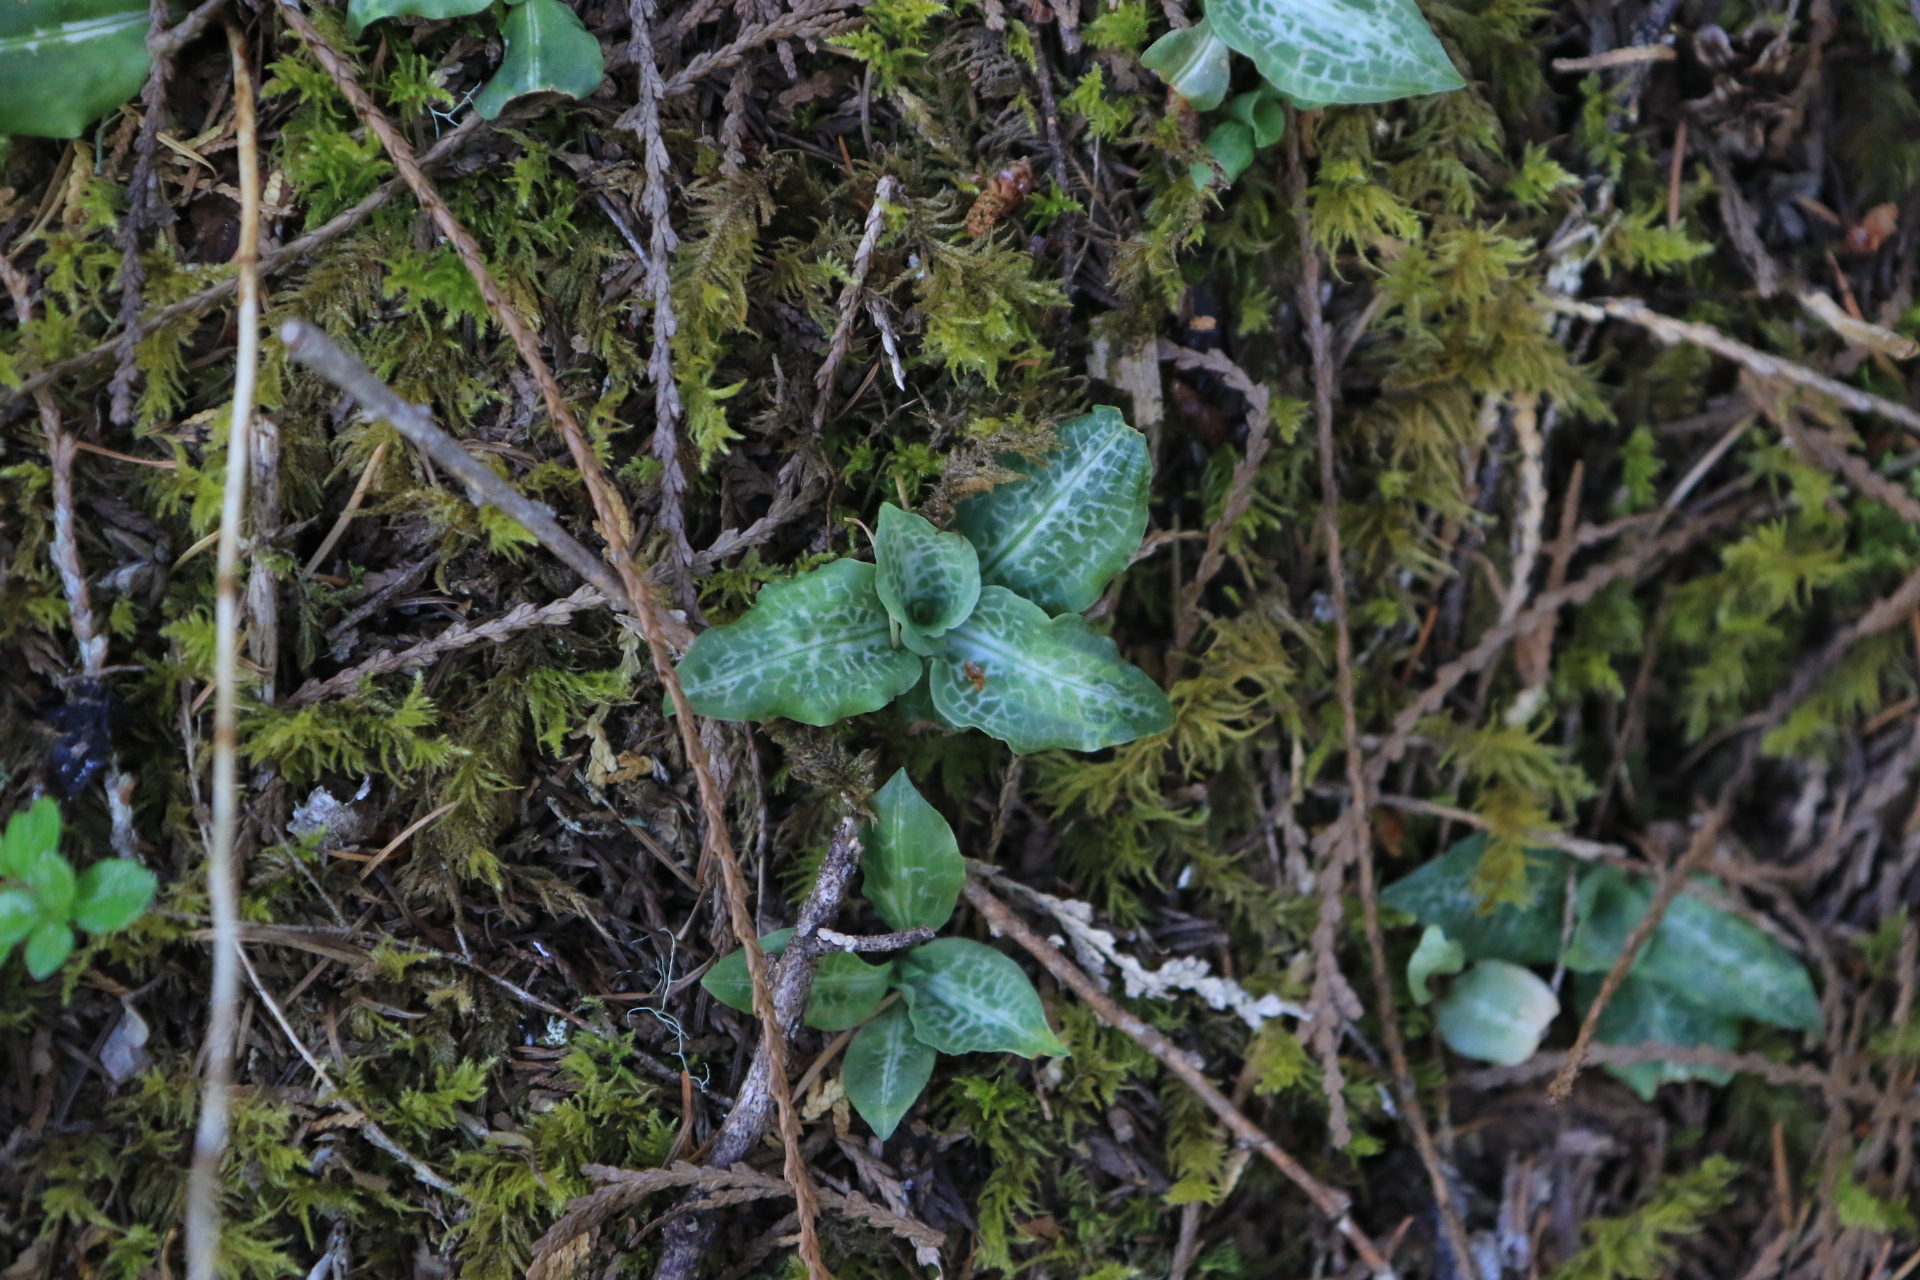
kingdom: Plantae
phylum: Tracheophyta
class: Liliopsida
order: Asparagales
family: Orchidaceae
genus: Goodyera
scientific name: Goodyera oblongifolia
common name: Giant rattlesnake-plantain
